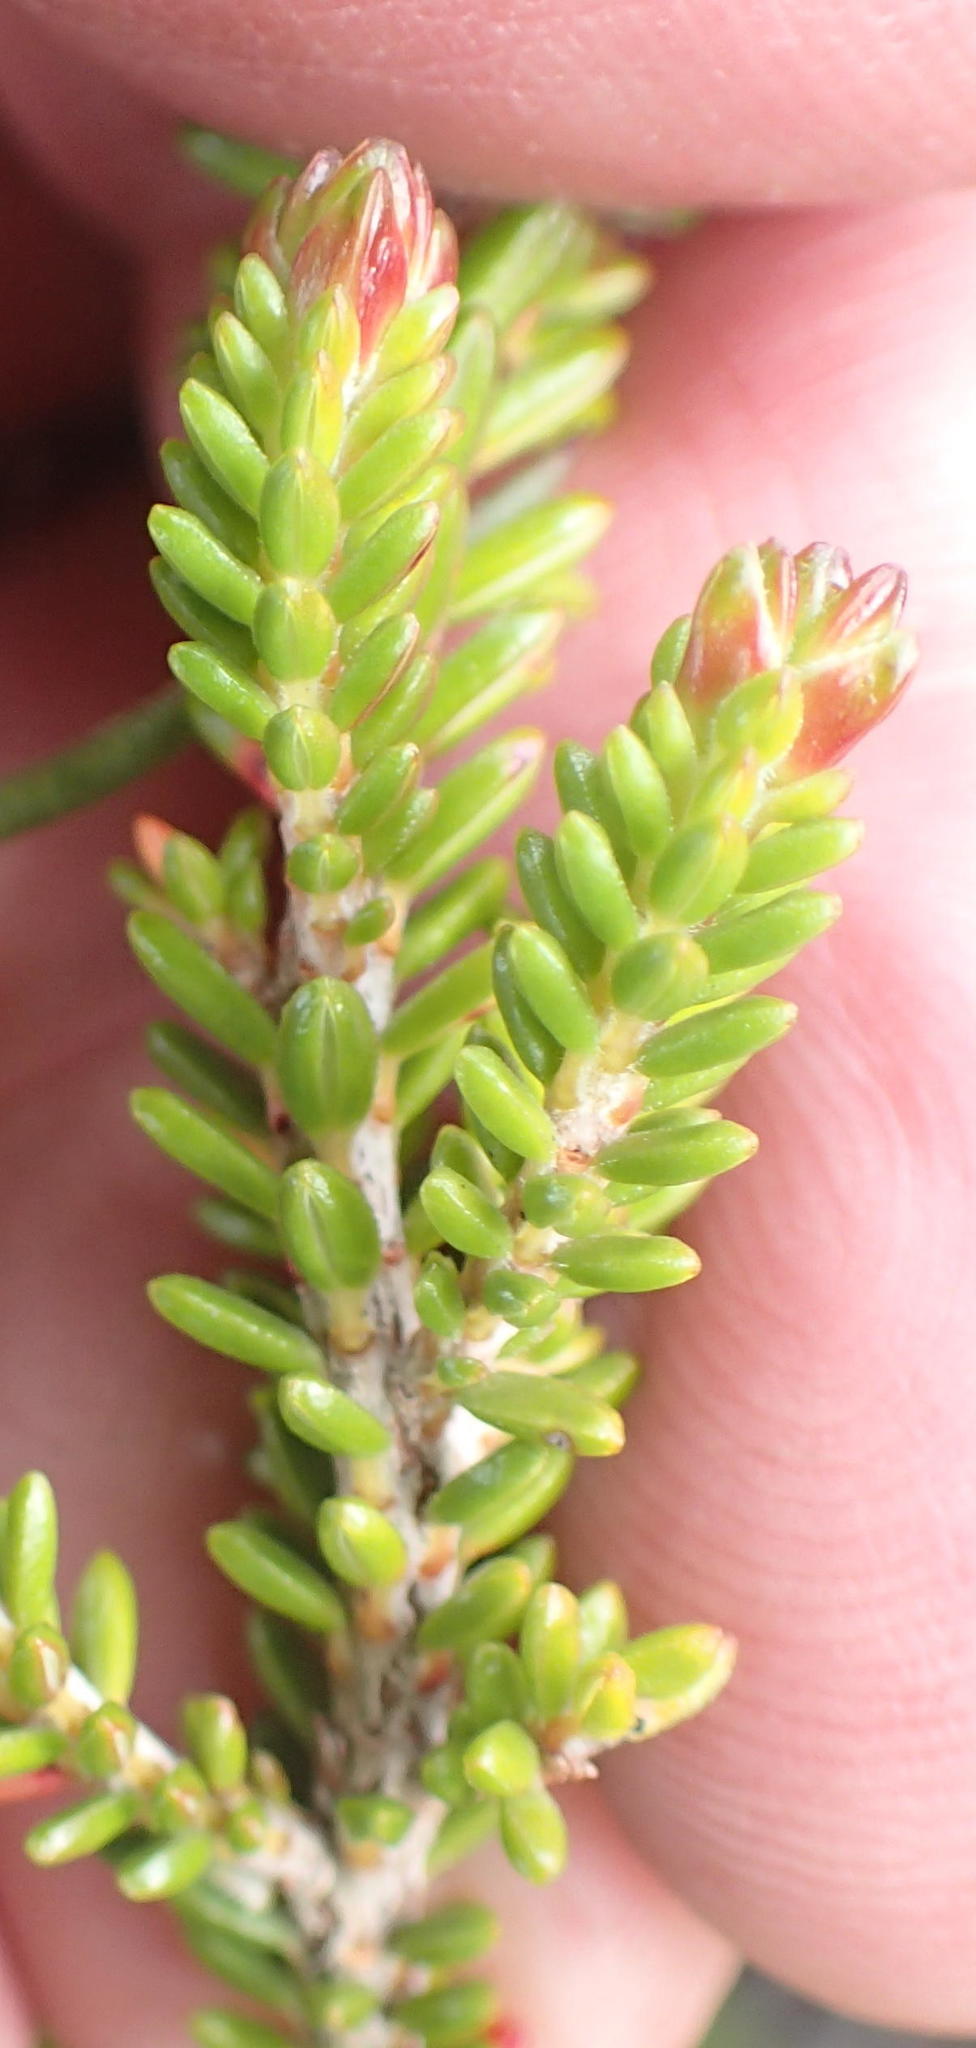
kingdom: Plantae
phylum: Tracheophyta
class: Magnoliopsida
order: Ericales
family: Ericaceae
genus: Erica
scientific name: Erica viridiflora
